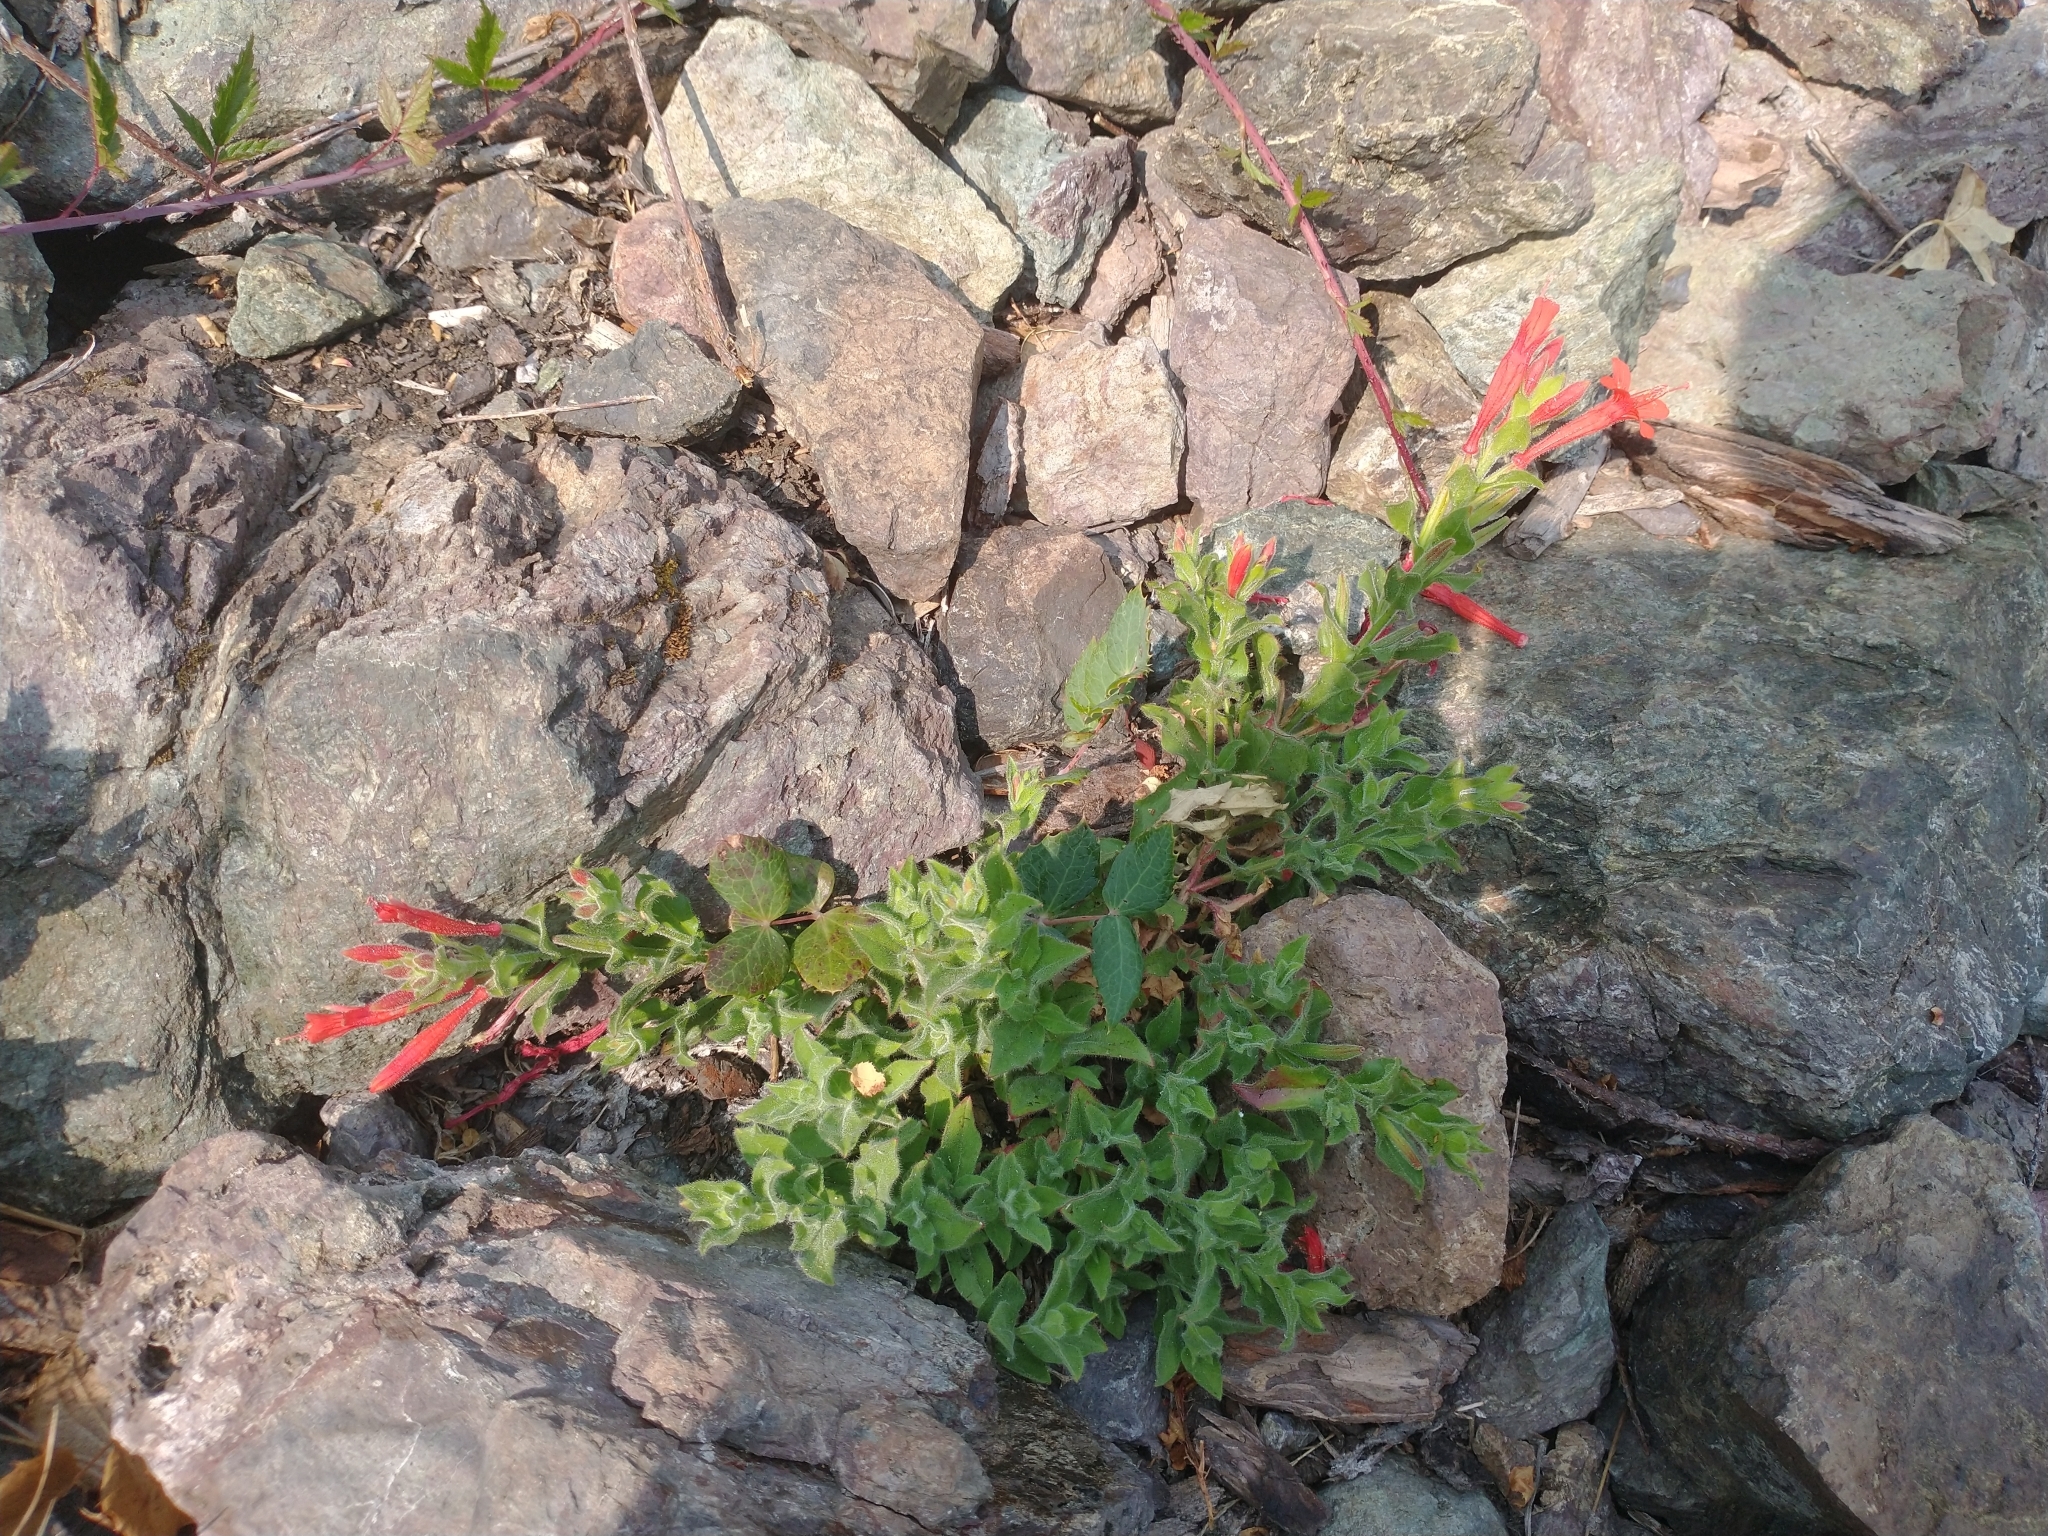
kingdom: Plantae
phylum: Tracheophyta
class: Magnoliopsida
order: Myrtales
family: Onagraceae
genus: Epilobium
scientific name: Epilobium canum
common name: California-fuchsia
